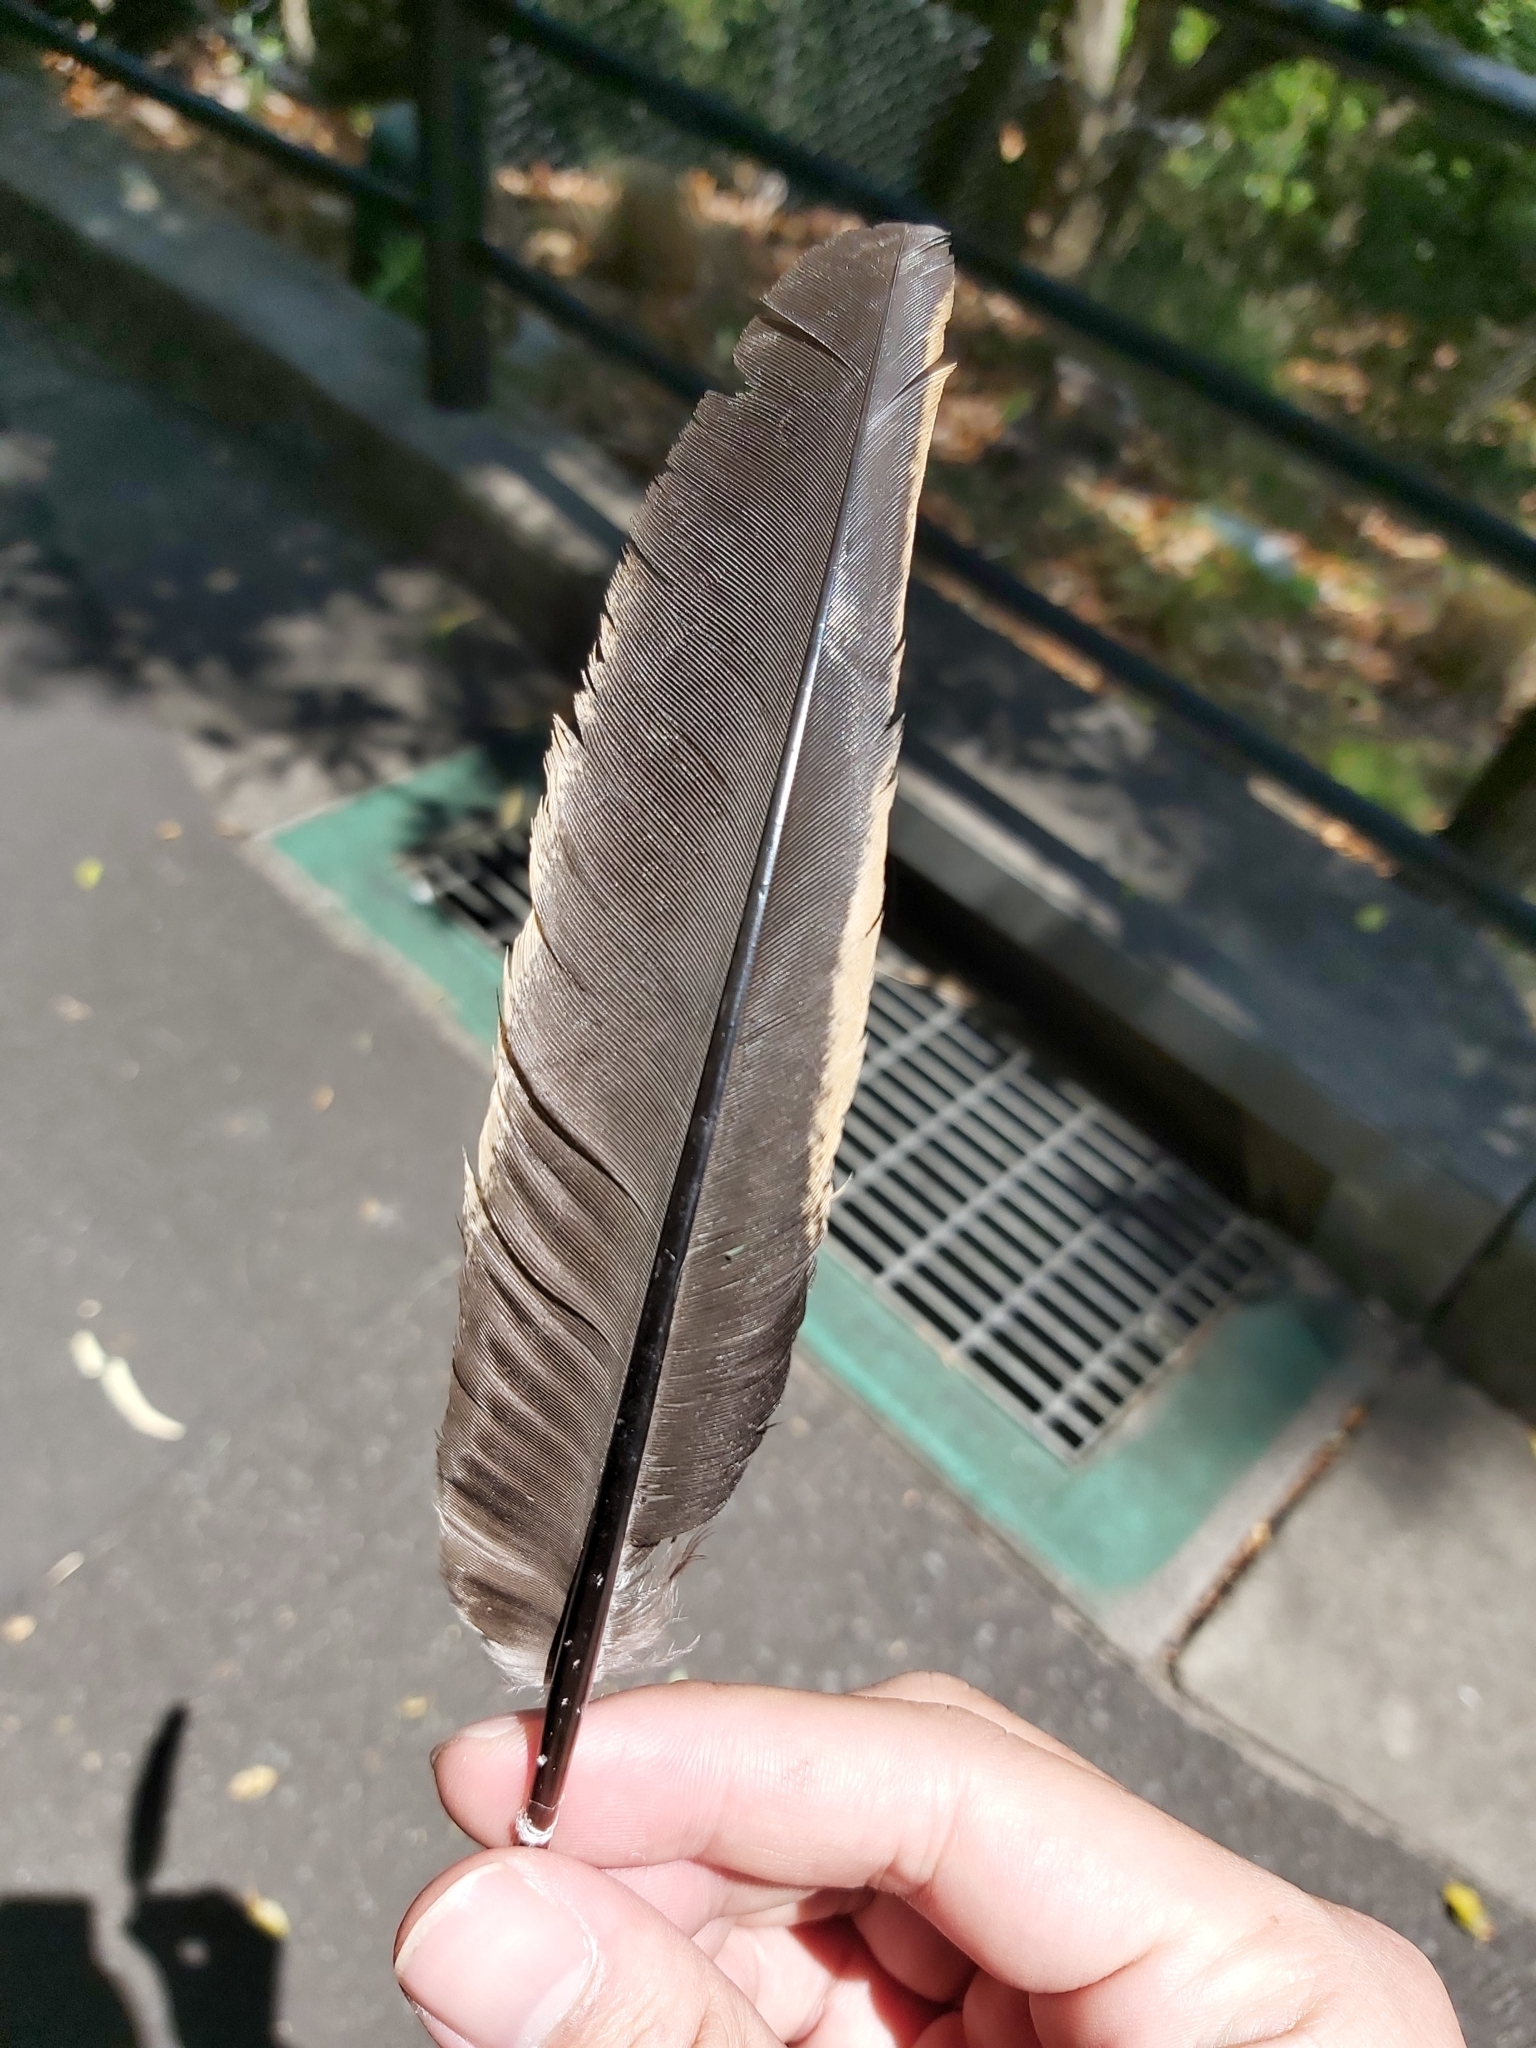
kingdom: Animalia
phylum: Chordata
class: Aves
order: Galliformes
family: Phasianidae
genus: Gallus
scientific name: Gallus gallus
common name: Red junglefowl
